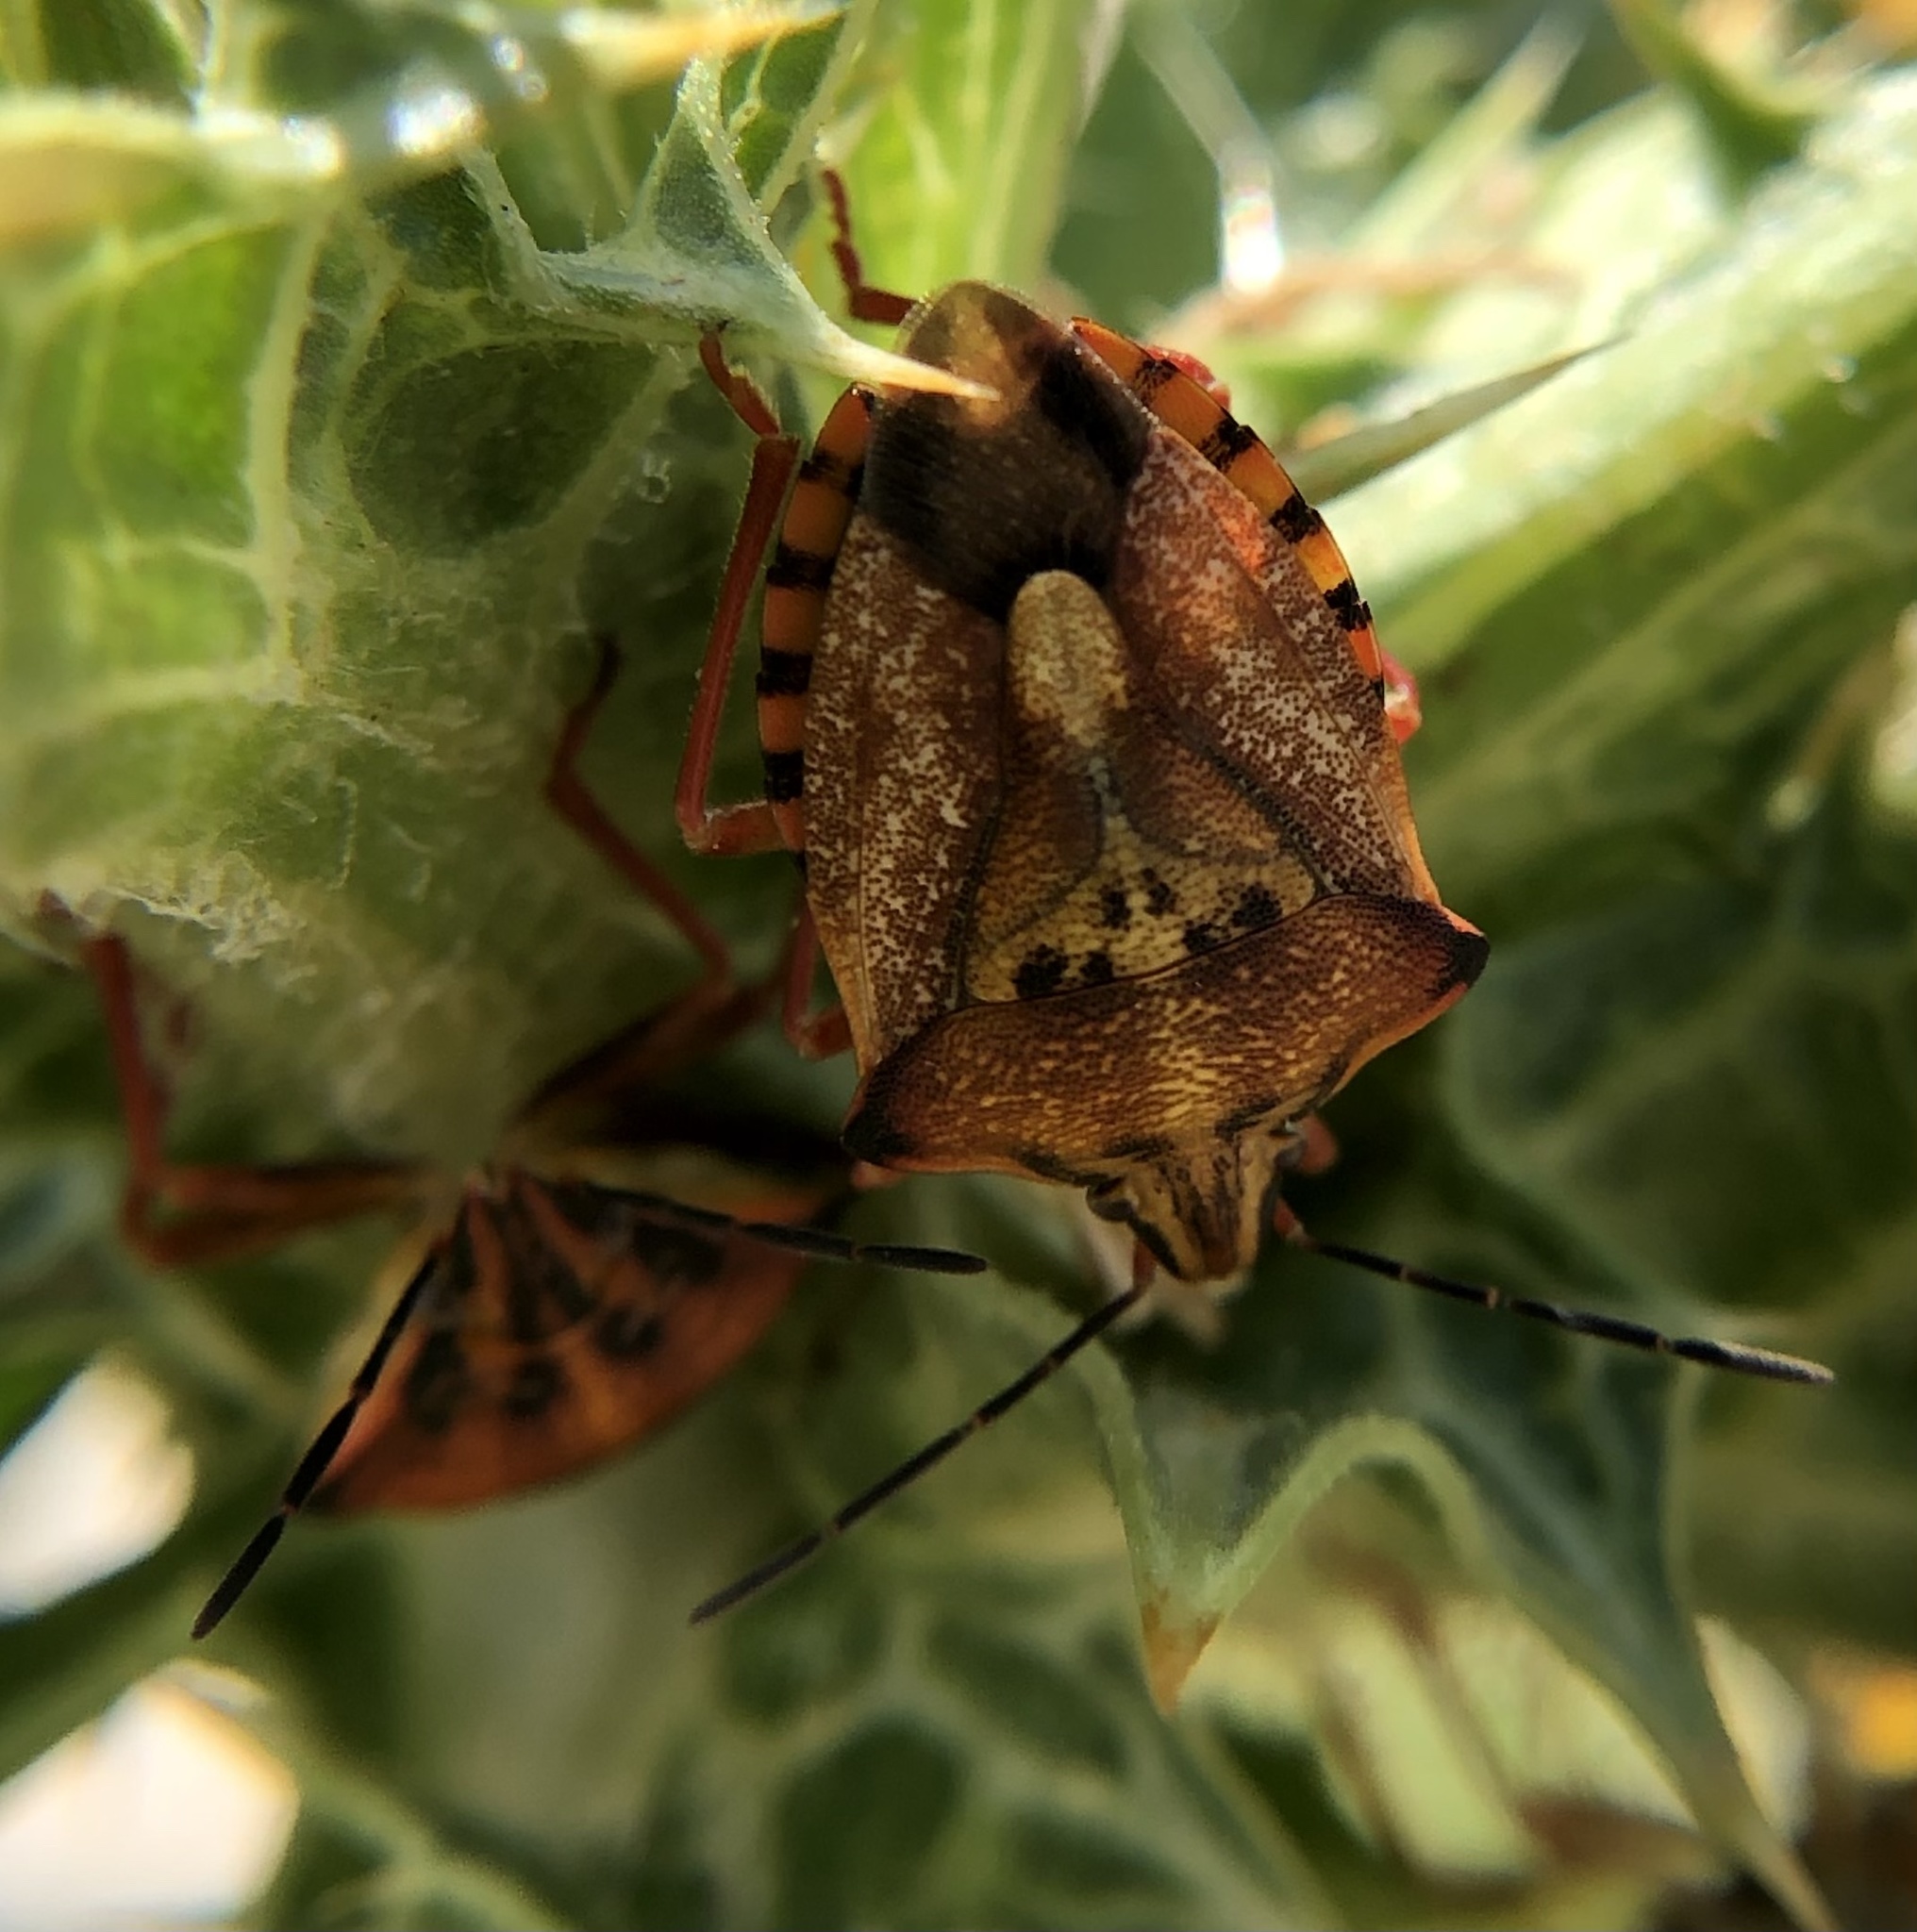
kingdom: Animalia
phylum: Arthropoda
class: Insecta
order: Hemiptera
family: Pentatomidae
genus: Carpocoris
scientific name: Carpocoris mediterraneus
